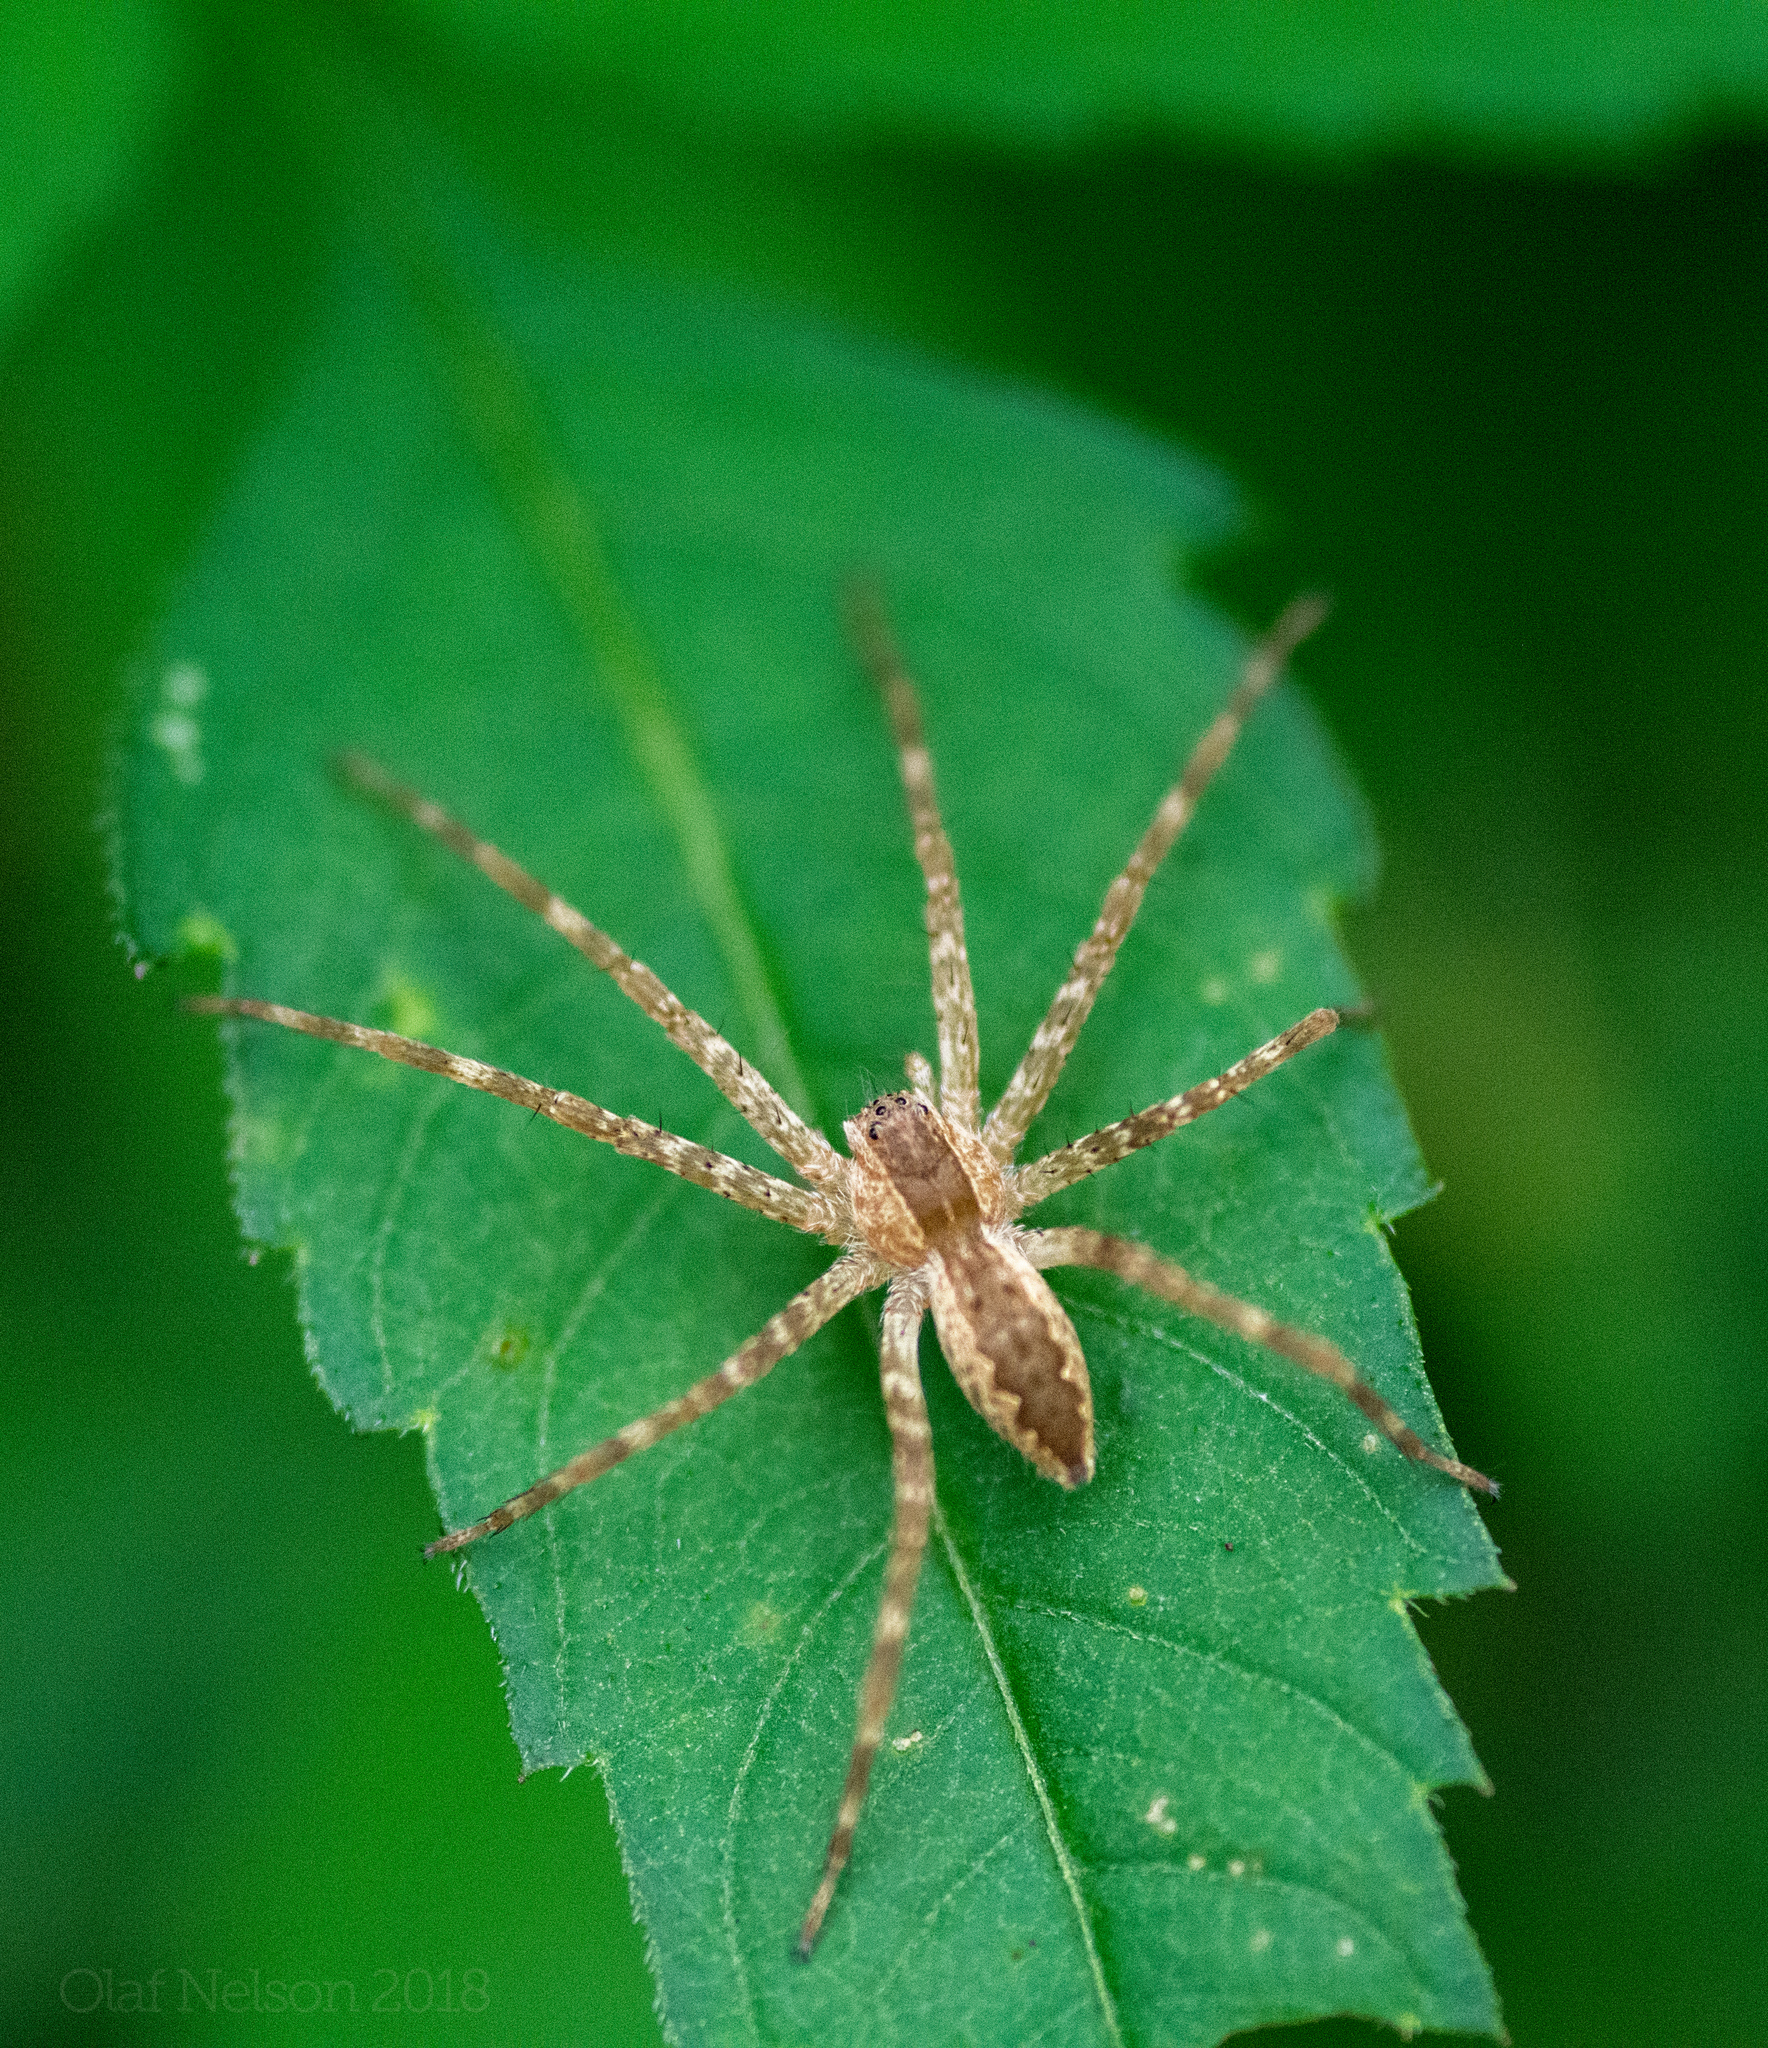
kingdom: Animalia
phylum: Arthropoda
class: Arachnida
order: Araneae
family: Pisauridae
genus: Pisaurina
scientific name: Pisaurina mira
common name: American nursery web spider
